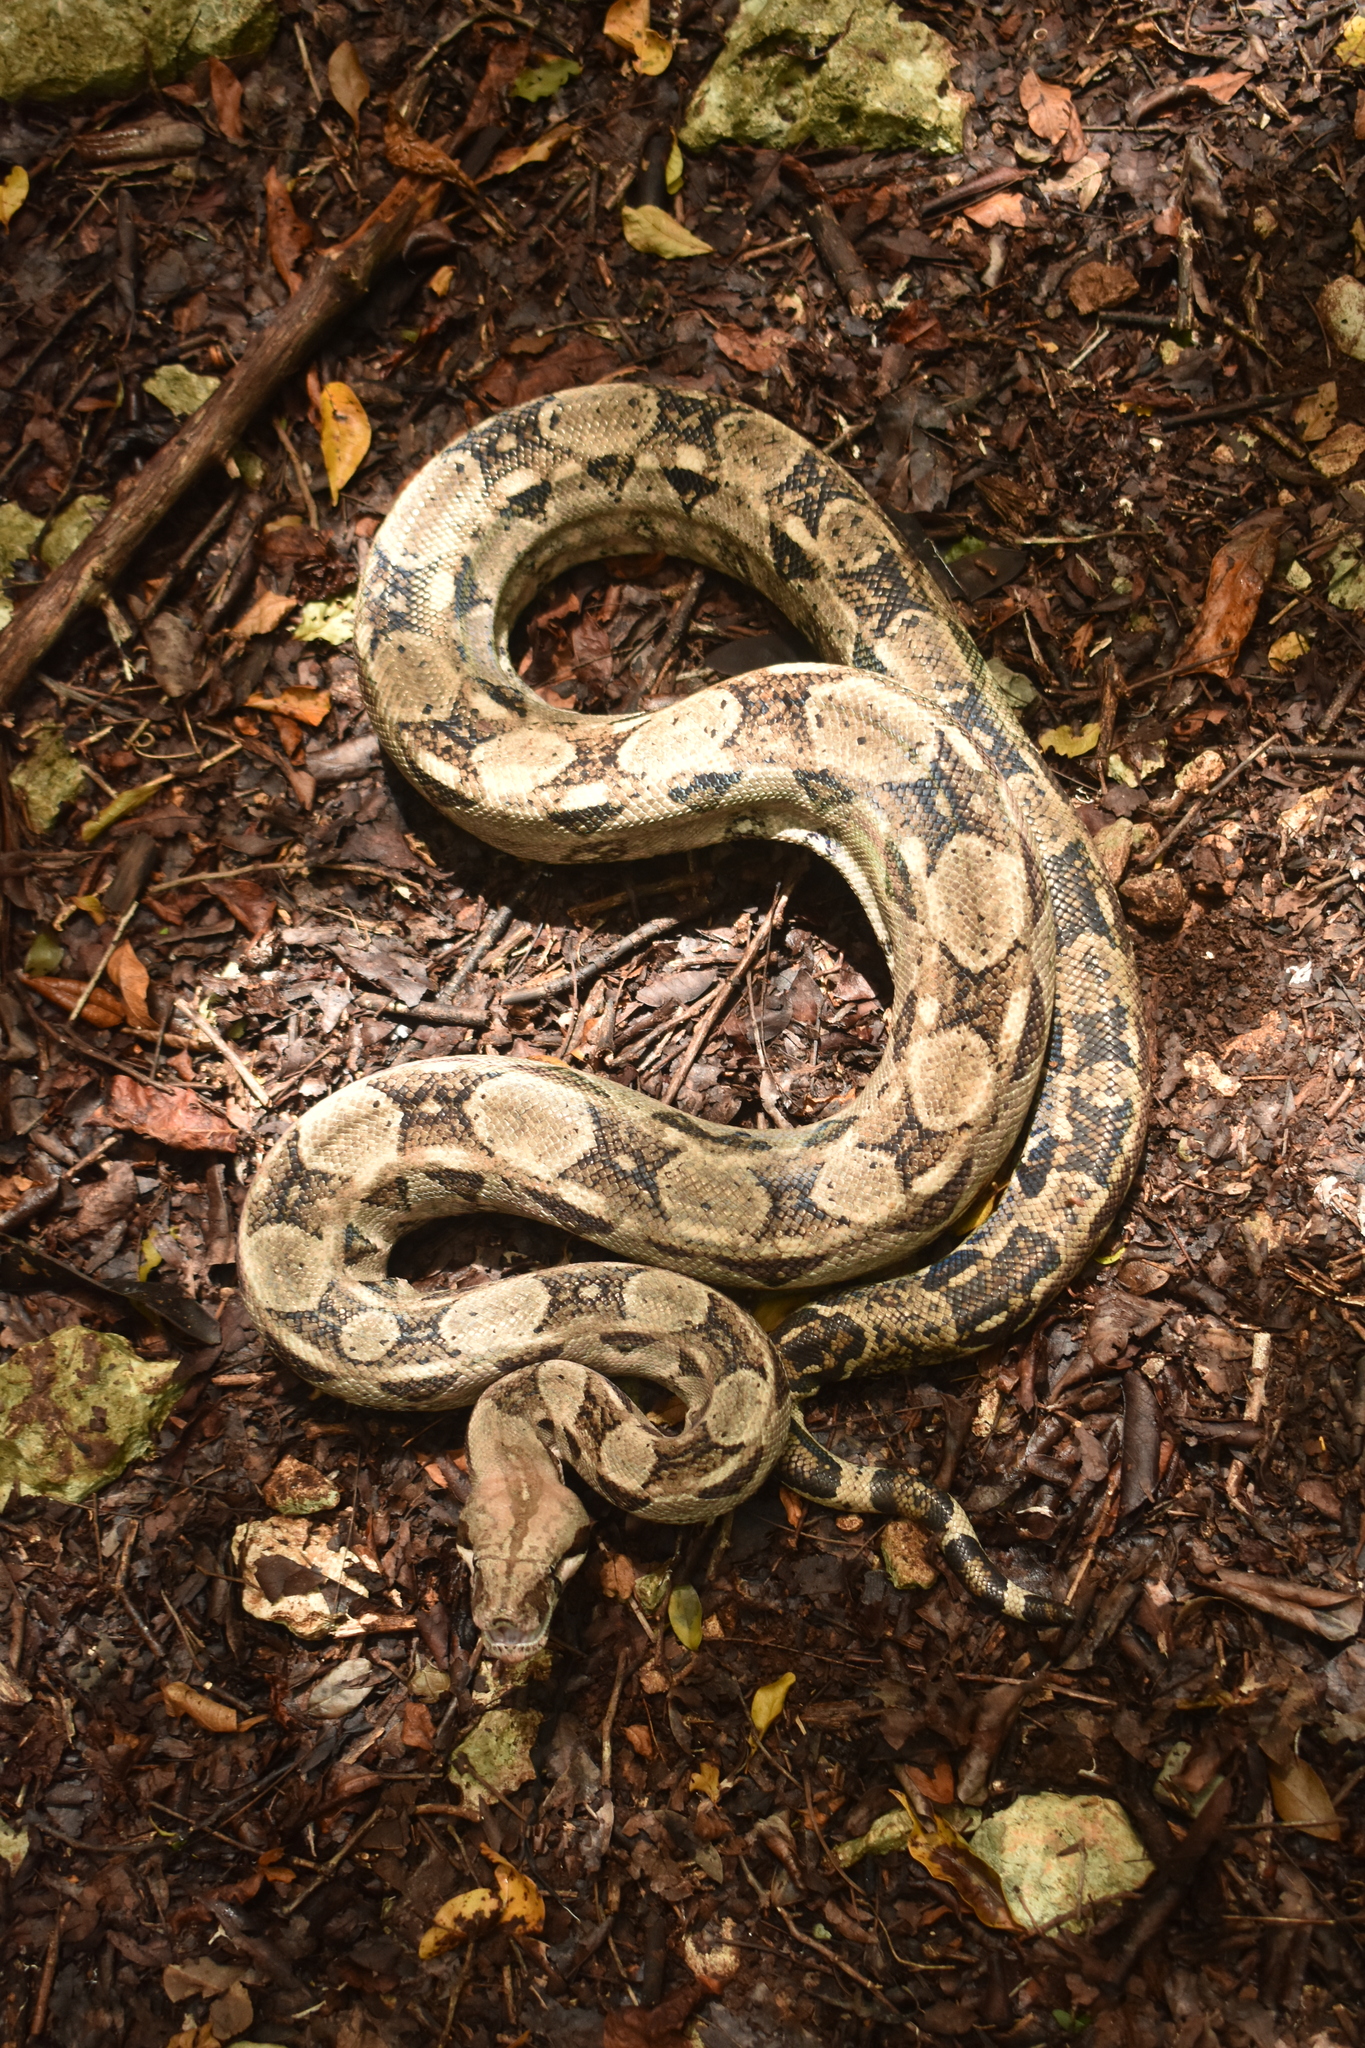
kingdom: Animalia
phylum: Chordata
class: Squamata
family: Boidae
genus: Boa
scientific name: Boa imperator
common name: Central american boa
